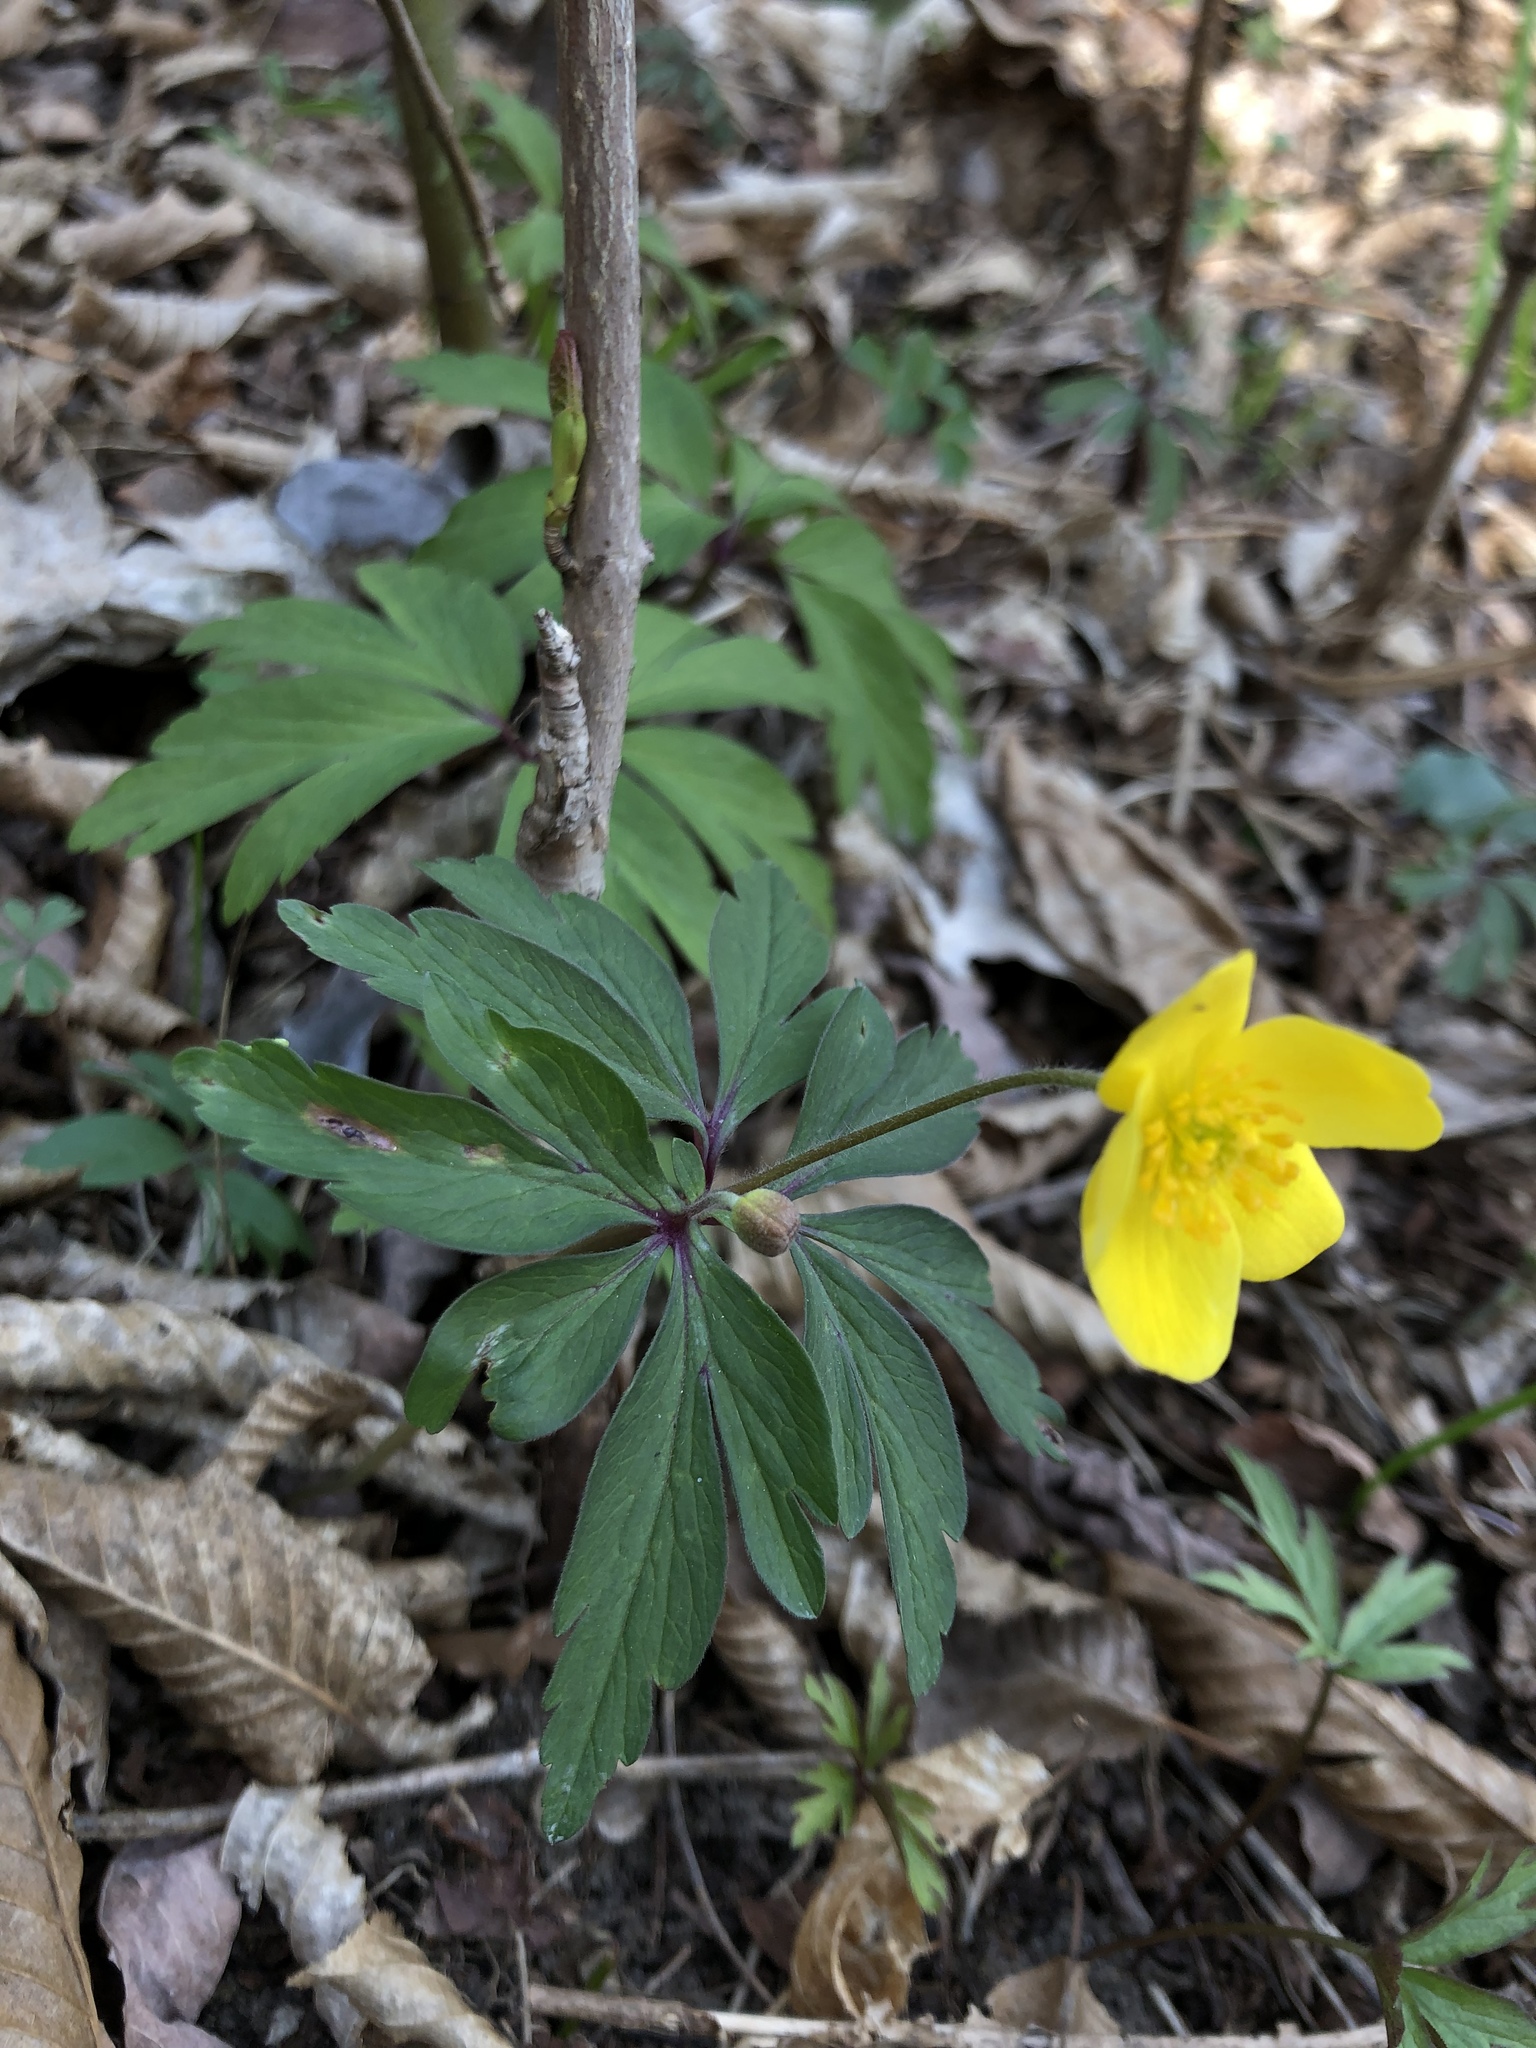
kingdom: Plantae
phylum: Tracheophyta
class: Magnoliopsida
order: Ranunculales
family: Ranunculaceae
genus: Anemone
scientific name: Anemone ranunculoides
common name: Yellow anemone
